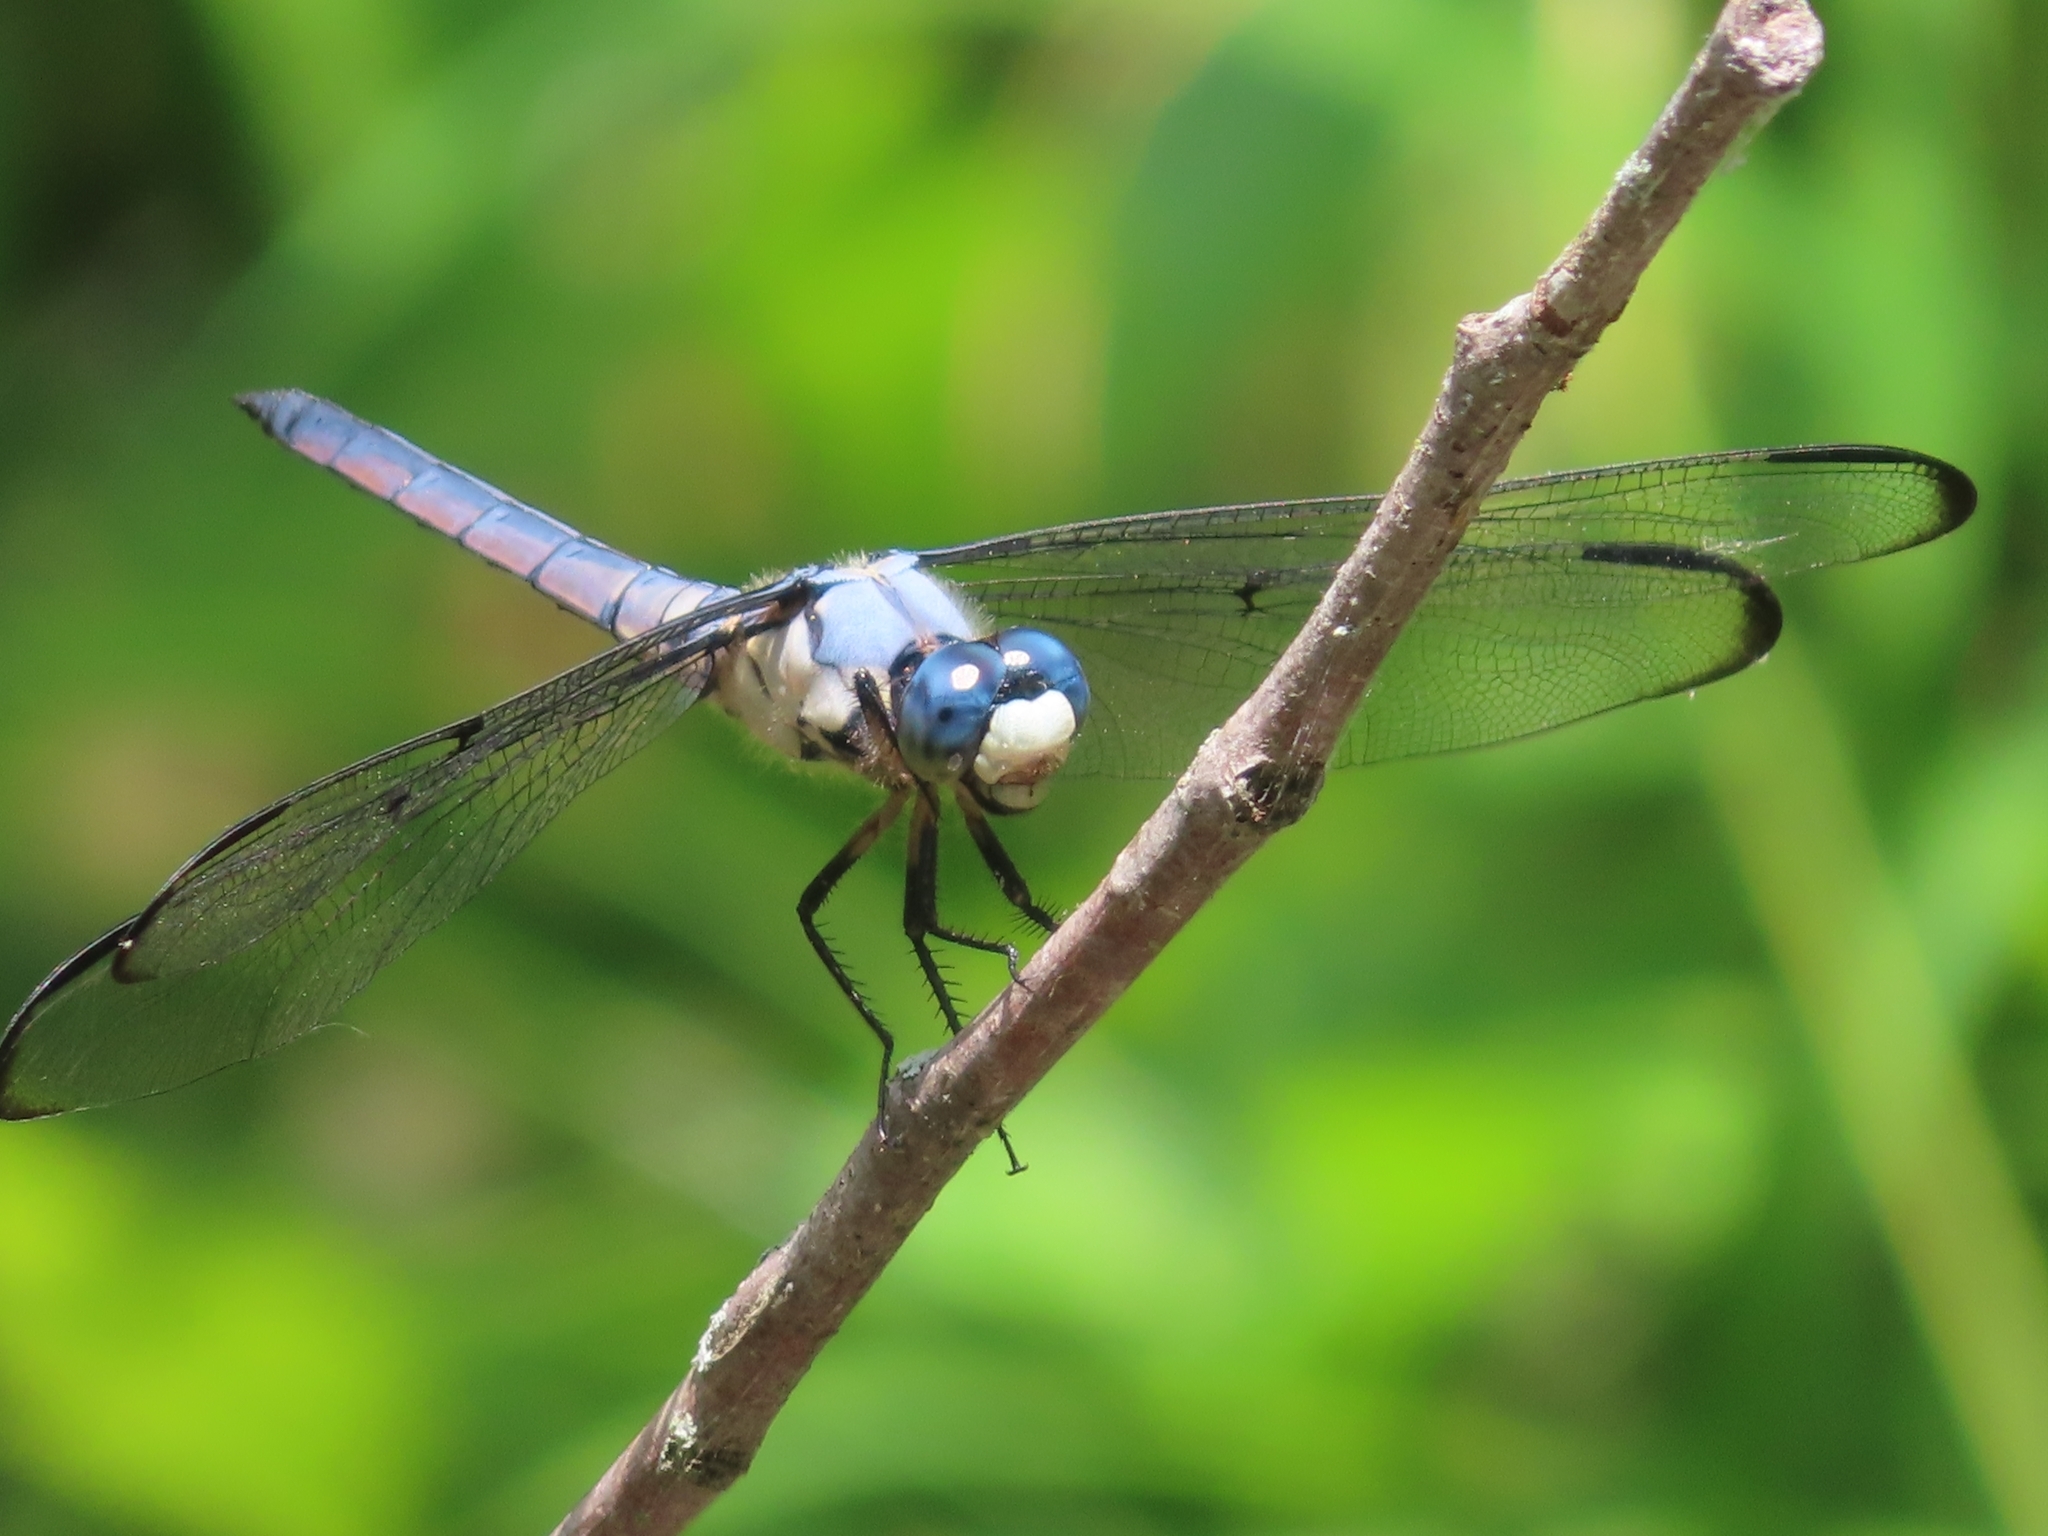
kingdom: Animalia
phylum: Arthropoda
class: Insecta
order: Odonata
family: Libellulidae
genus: Libellula
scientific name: Libellula vibrans
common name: Great blue skimmer
